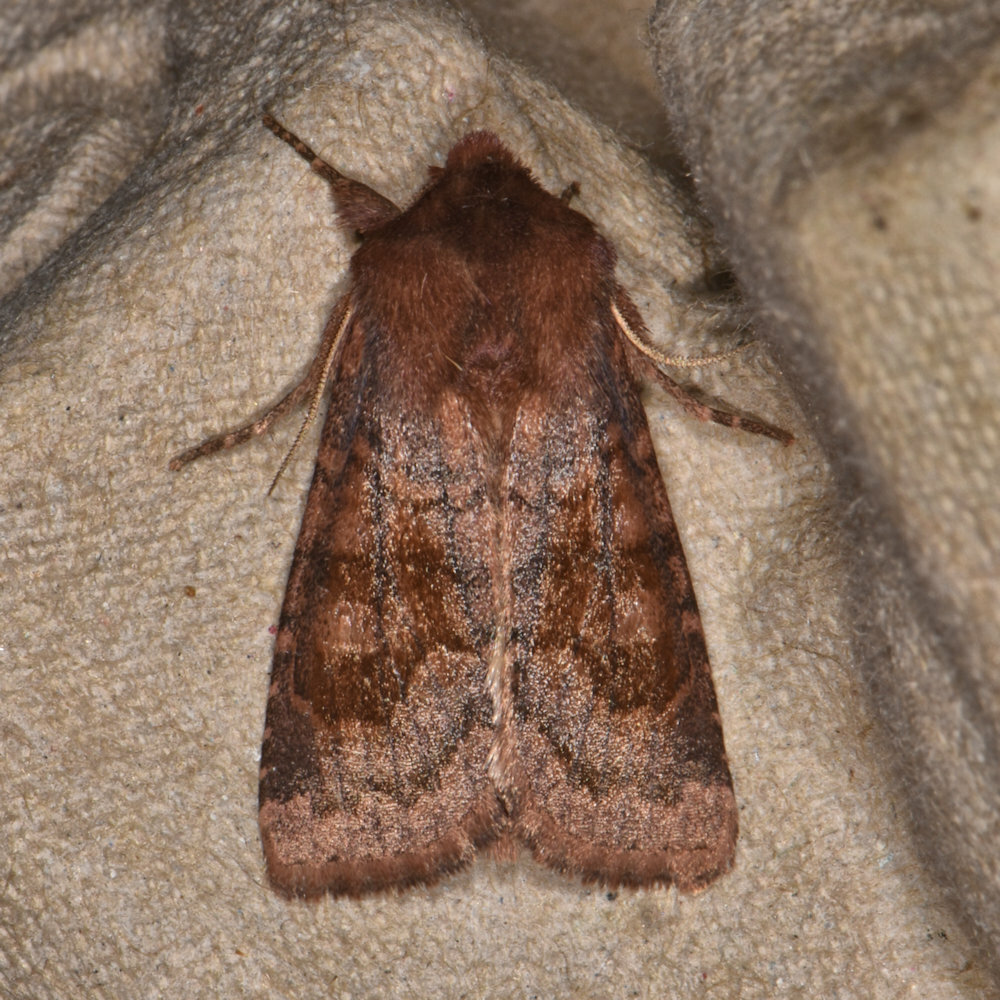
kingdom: Animalia
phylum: Arthropoda
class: Insecta
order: Lepidoptera
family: Noctuidae
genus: Nephelodes
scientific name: Nephelodes minians
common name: Bronzed cutworm
